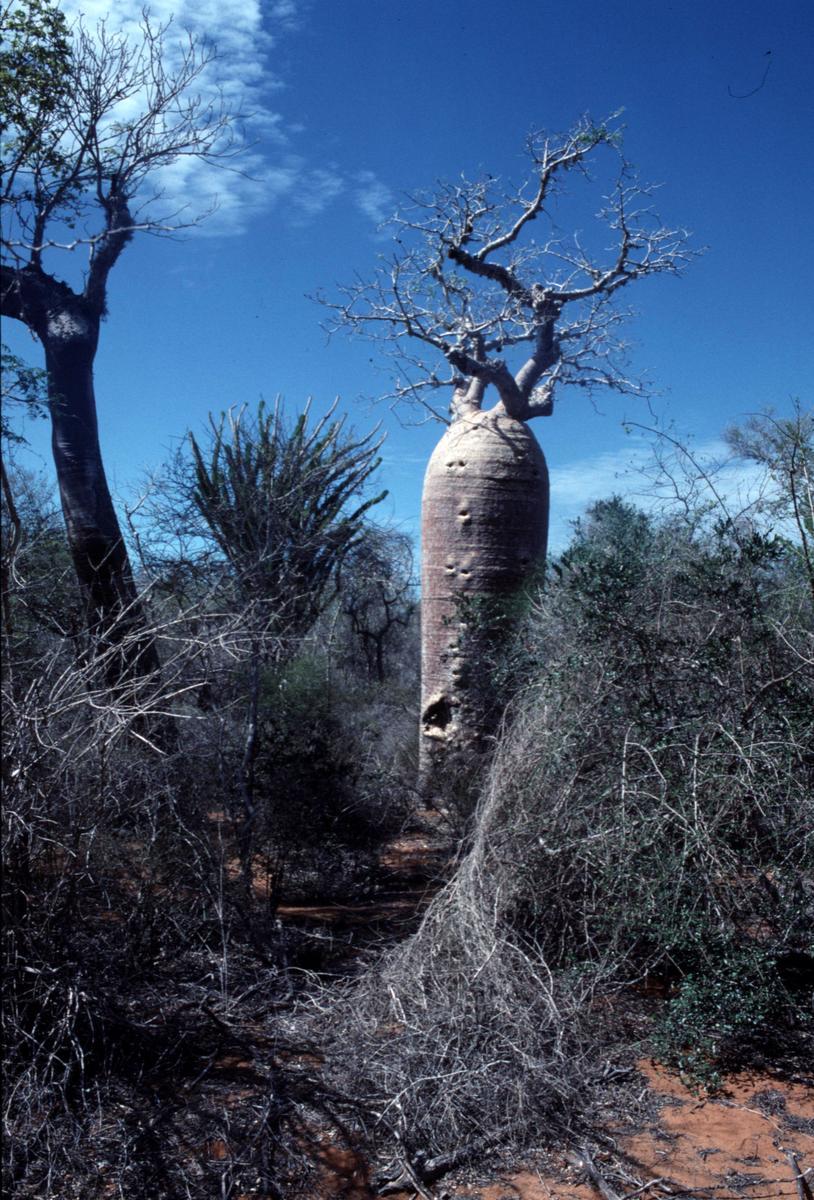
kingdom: Plantae
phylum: Tracheophyta
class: Magnoliopsida
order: Malvales
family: Malvaceae
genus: Adansonia
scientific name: Adansonia rubrostipa
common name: Fony baobab
